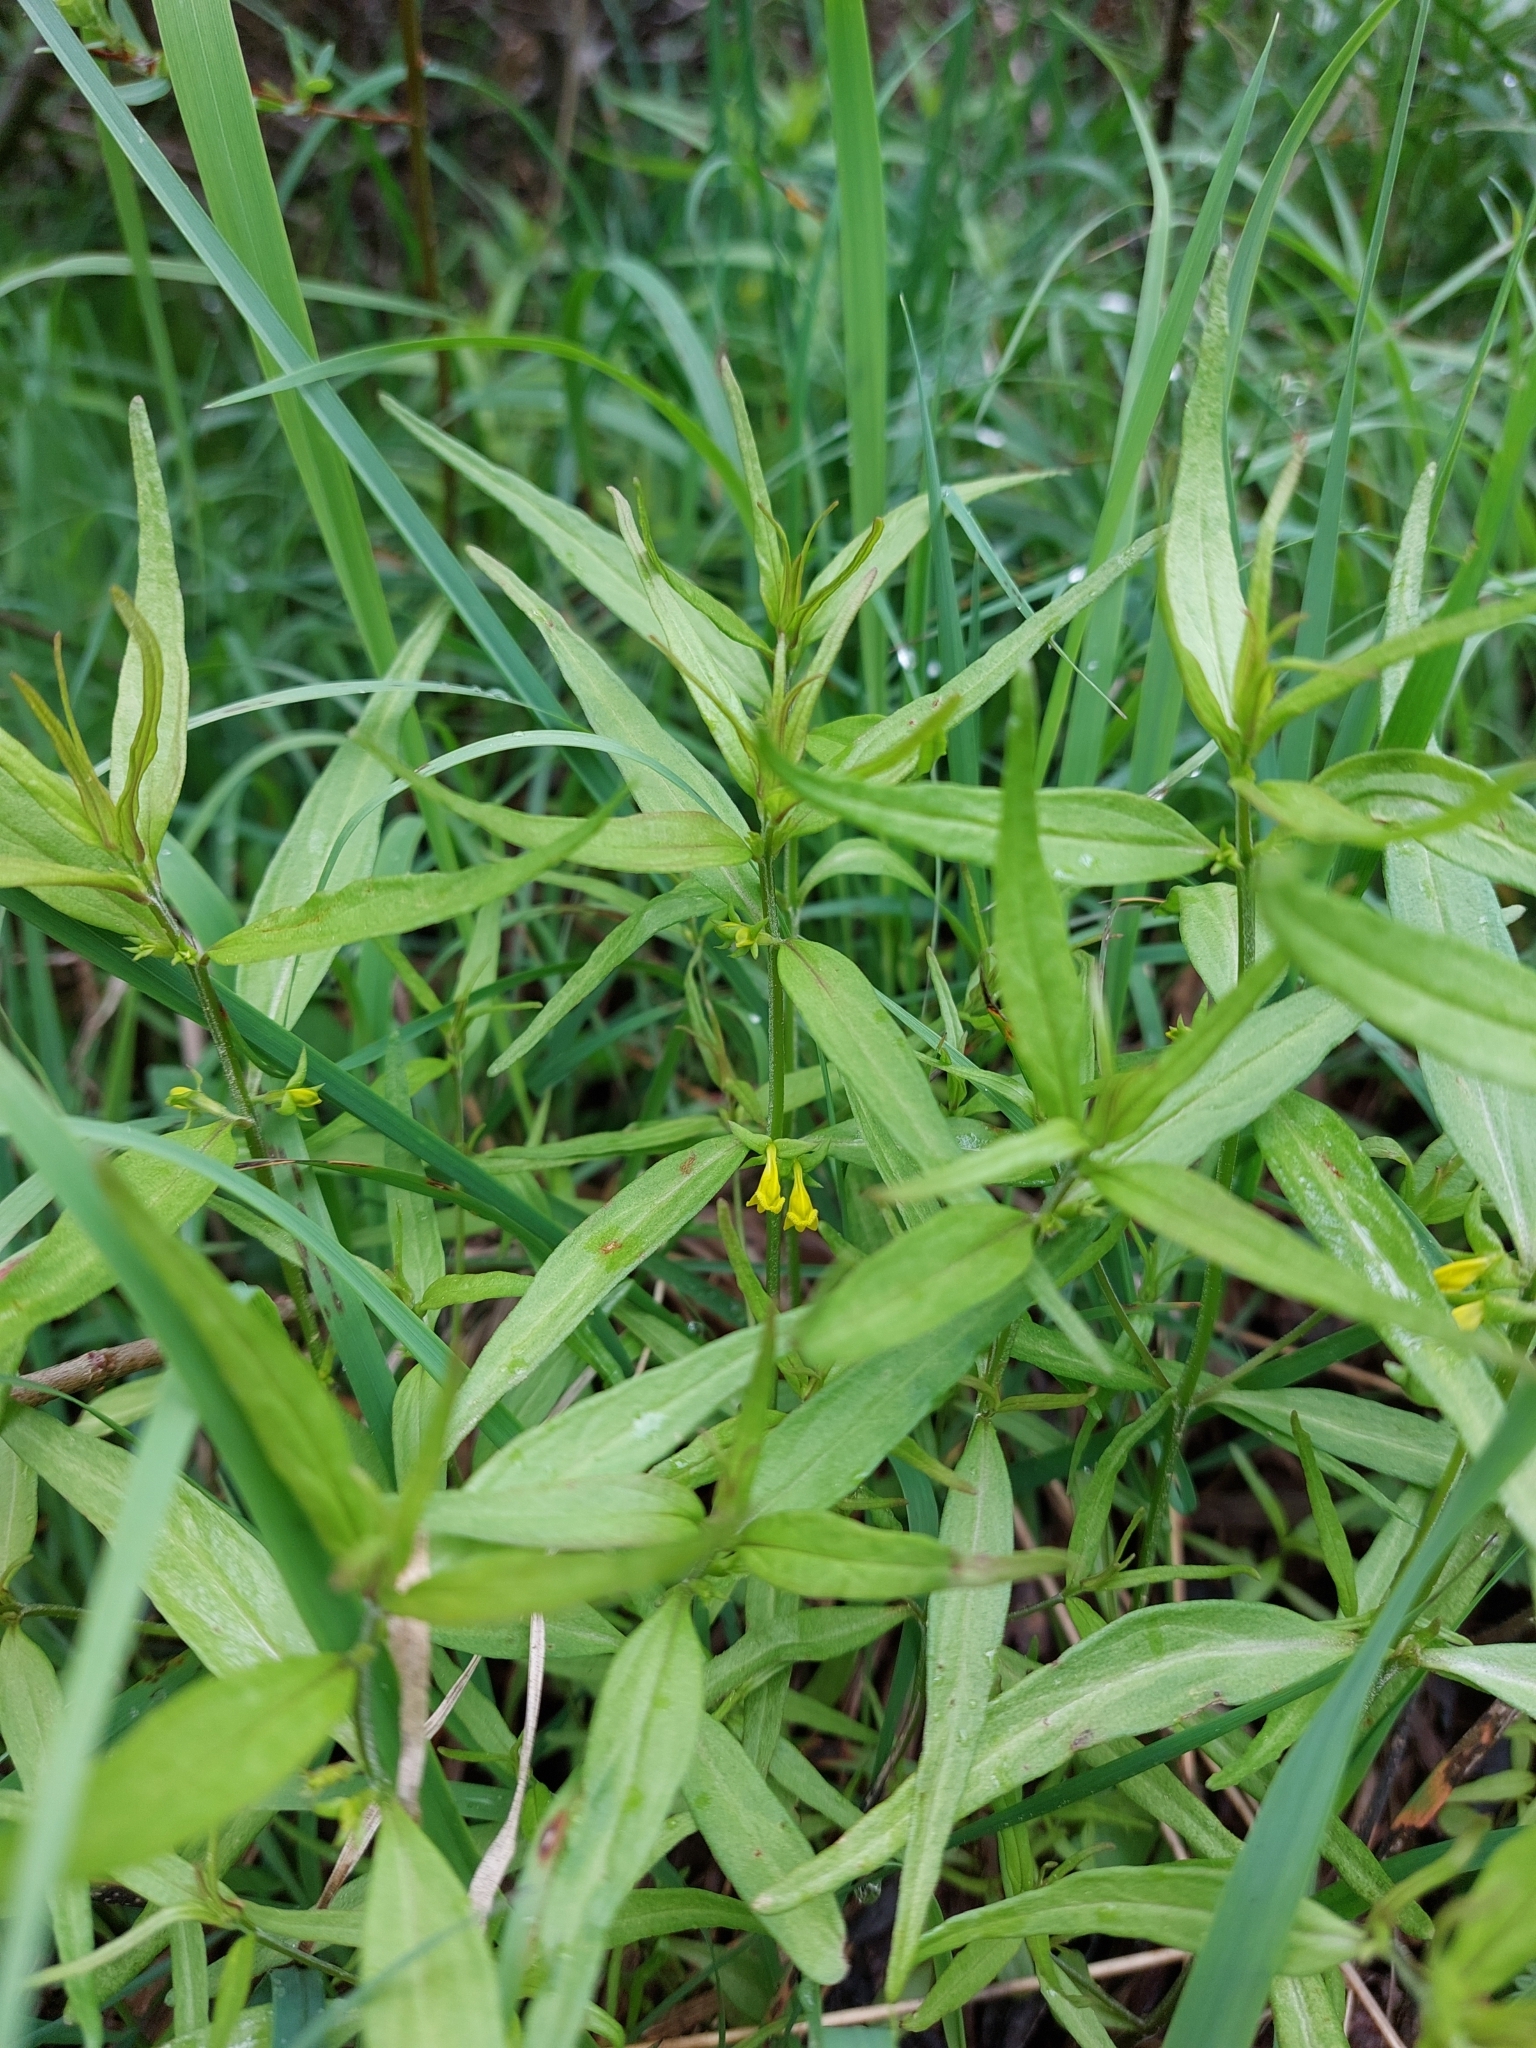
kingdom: Plantae
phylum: Tracheophyta
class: Magnoliopsida
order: Lamiales
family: Orobanchaceae
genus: Melampyrum
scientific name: Melampyrum sylvaticum
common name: Small cow-wheat
